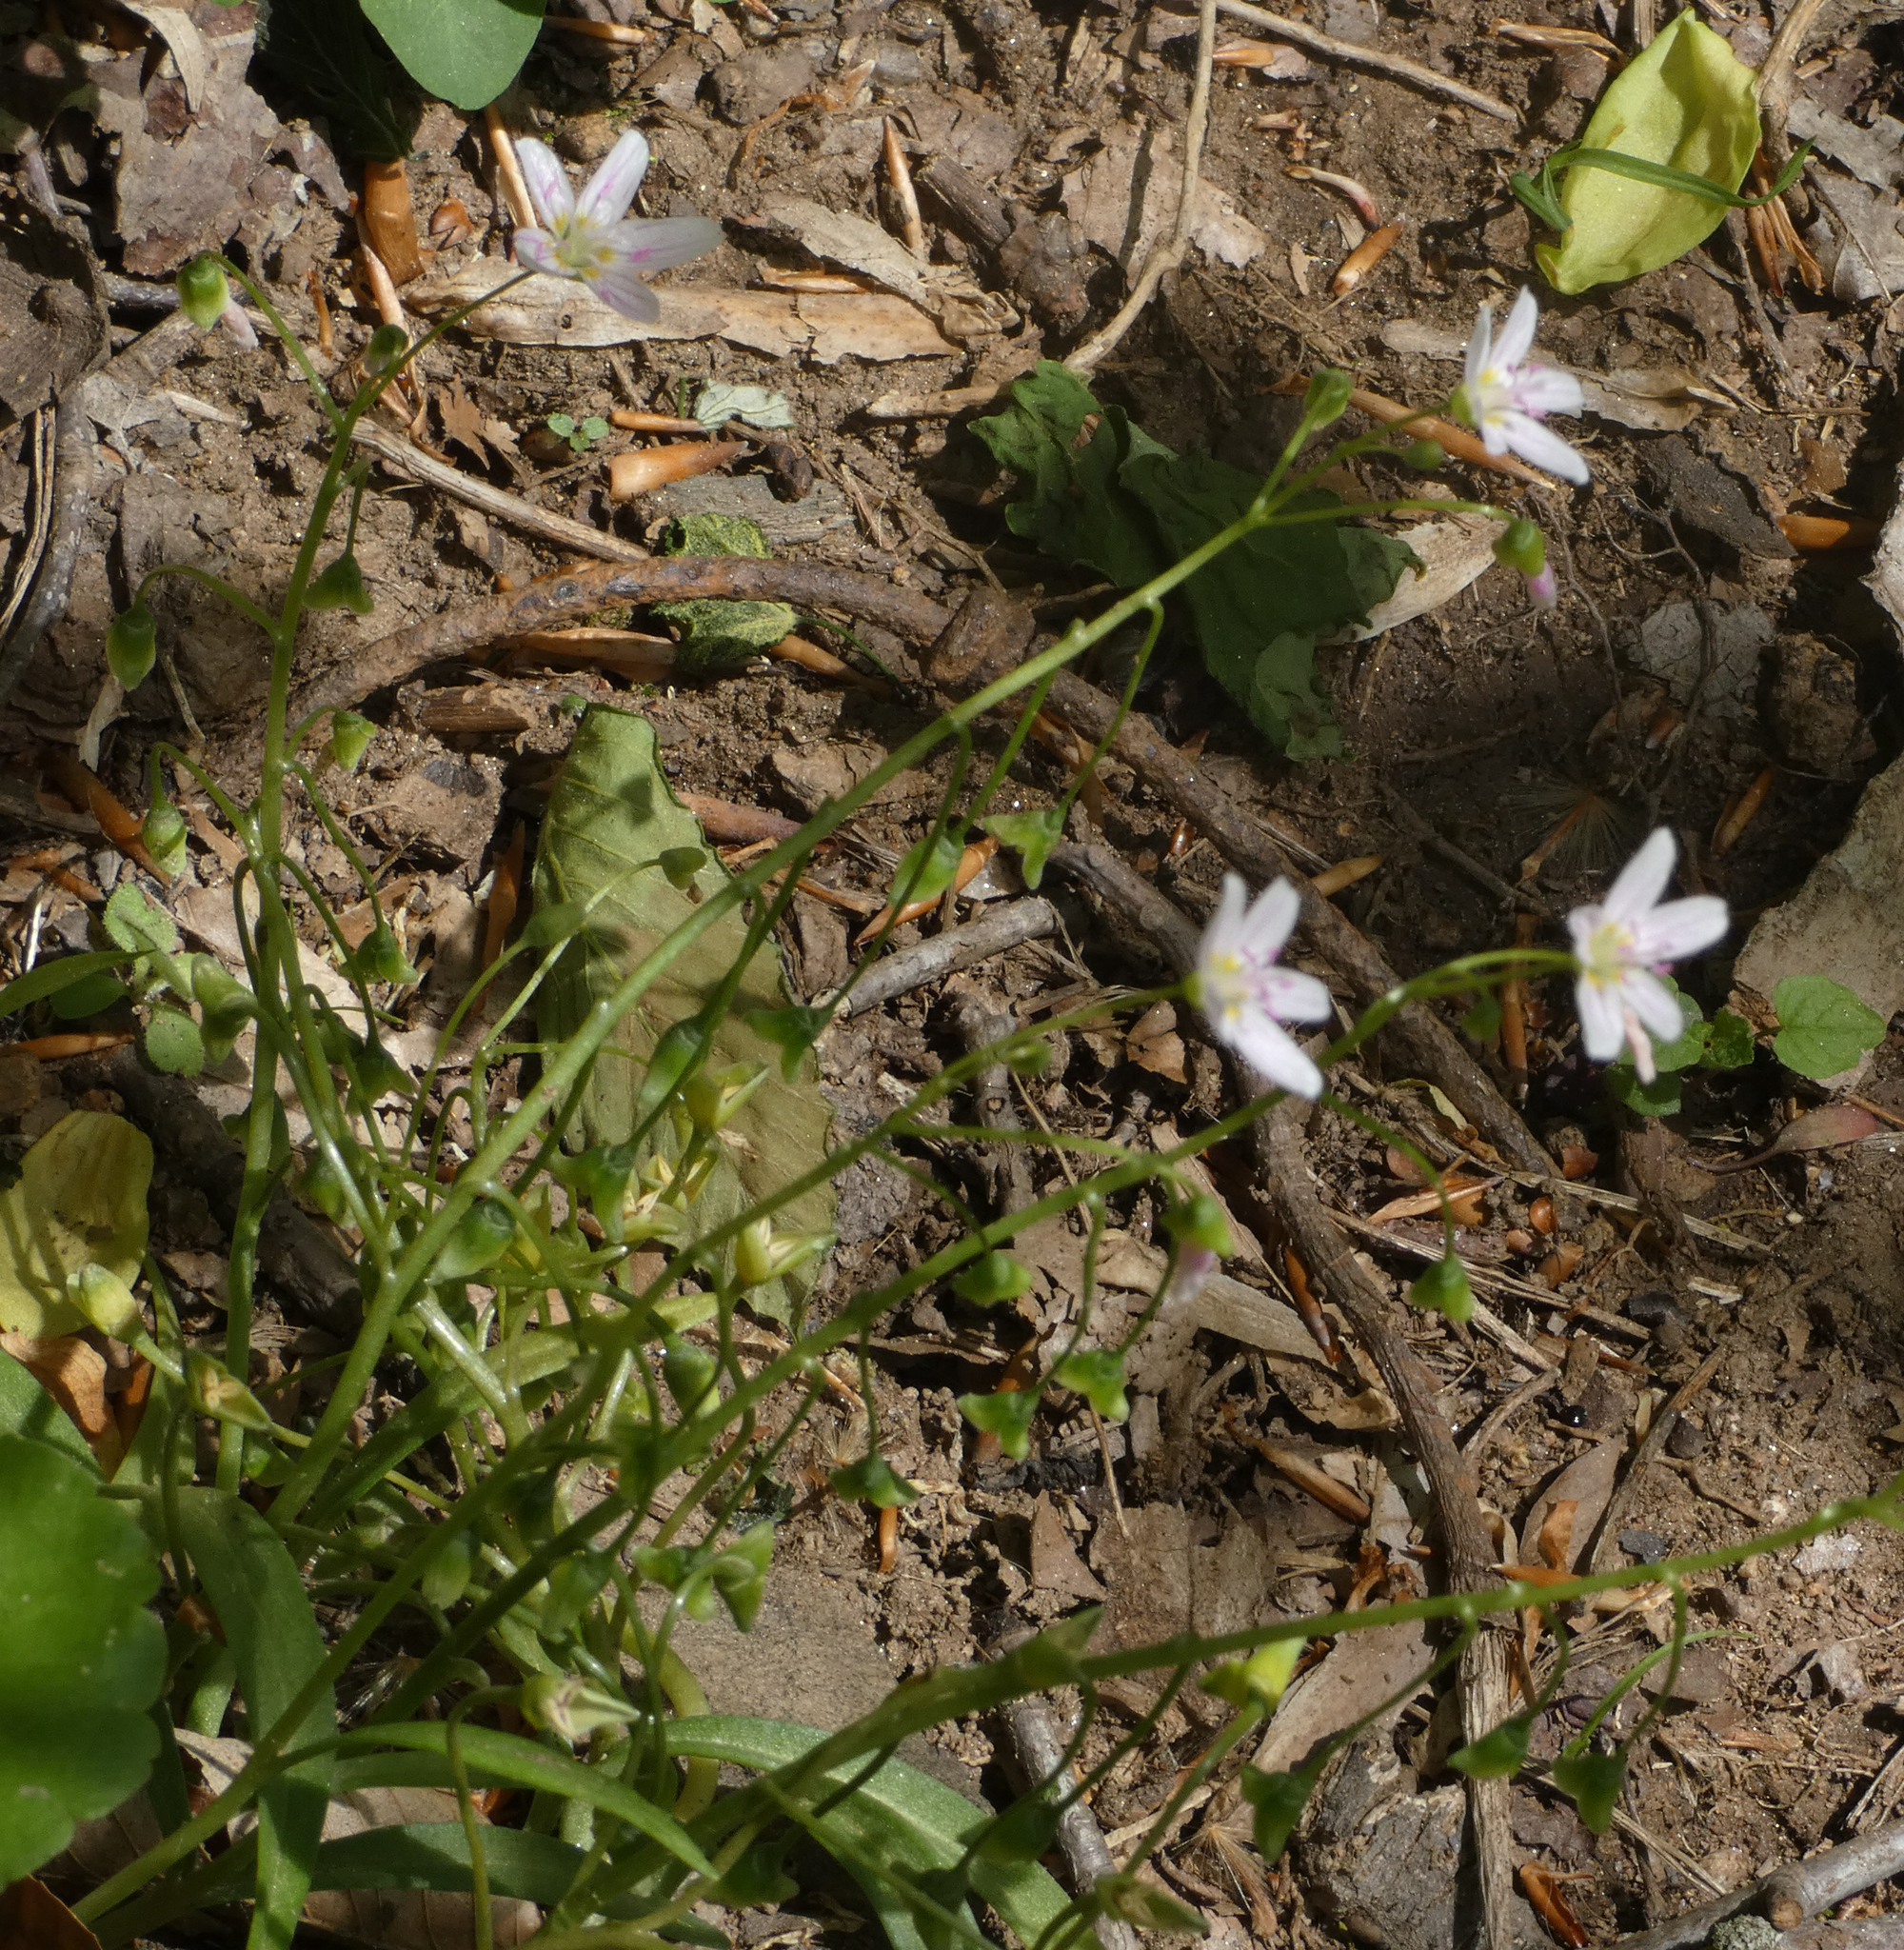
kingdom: Plantae
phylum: Tracheophyta
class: Magnoliopsida
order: Caryophyllales
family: Montiaceae
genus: Claytonia
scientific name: Claytonia virginica
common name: Virginia springbeauty
